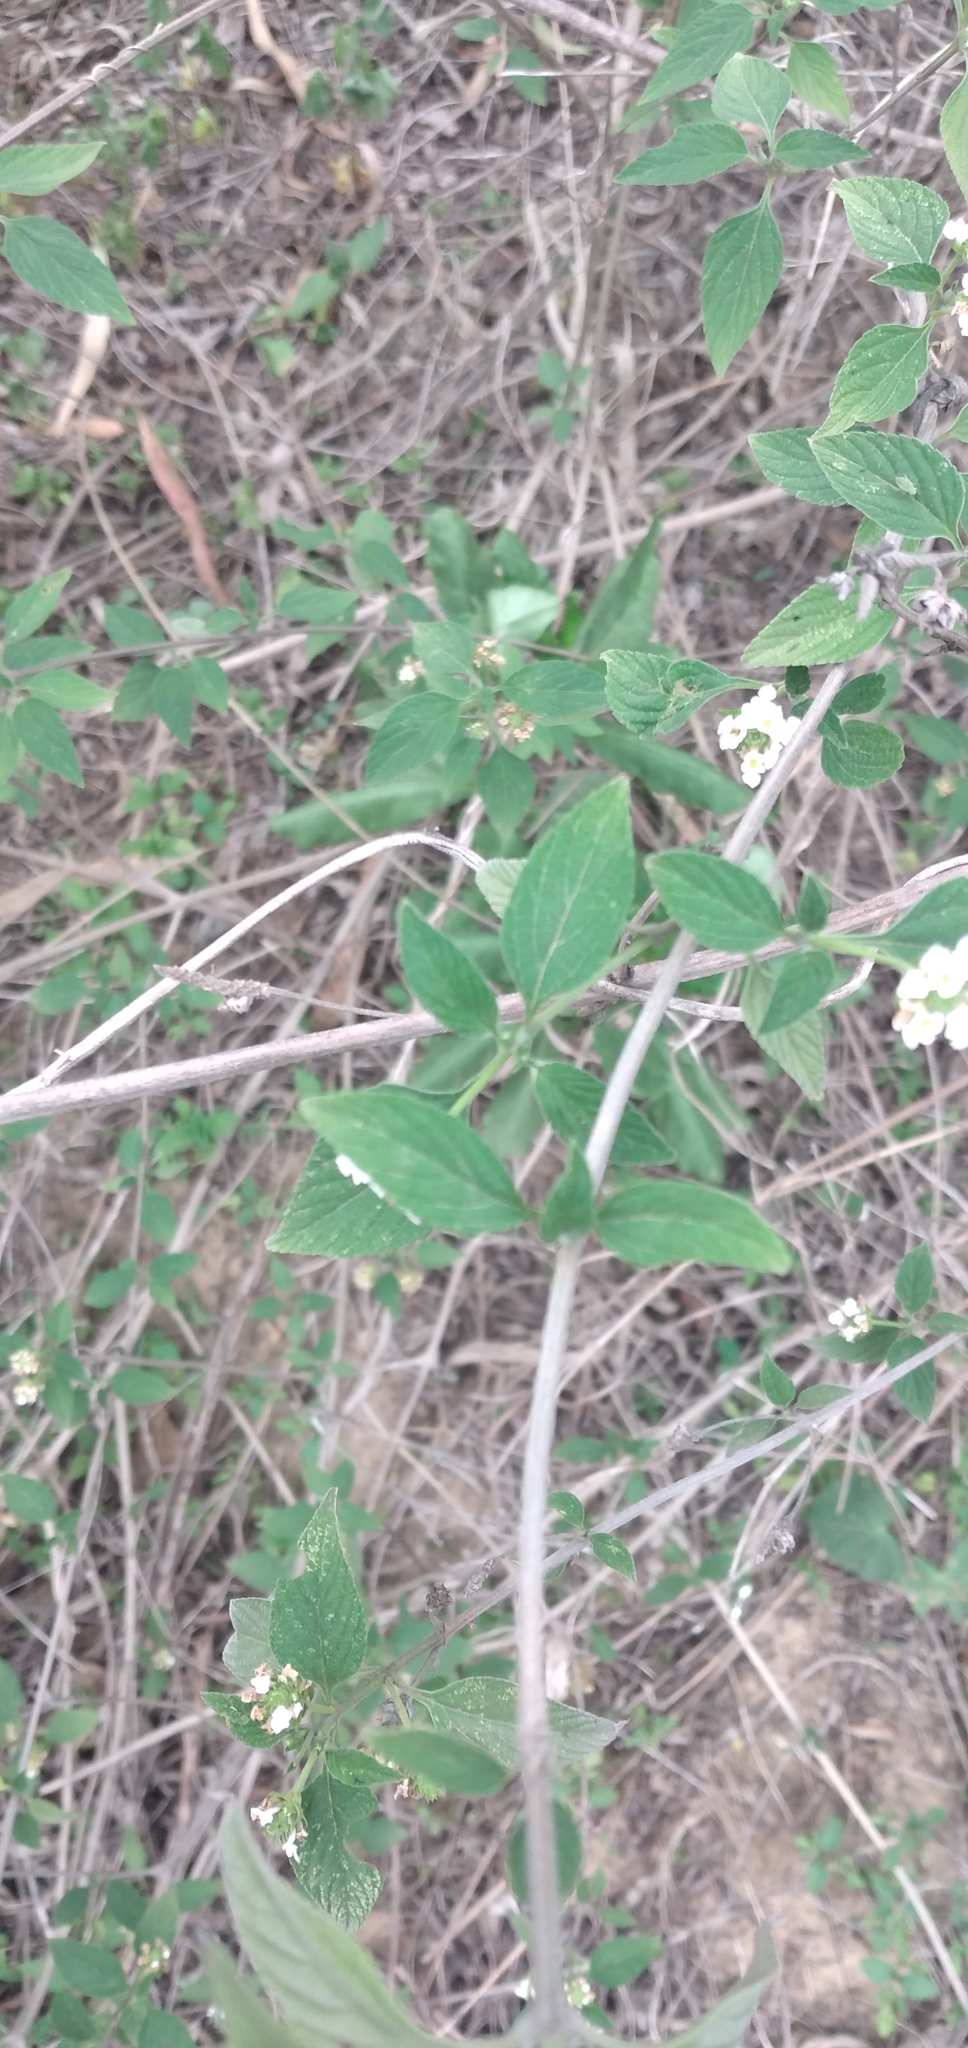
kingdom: Plantae
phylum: Tracheophyta
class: Magnoliopsida
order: Lamiales
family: Verbenaceae
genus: Lantana
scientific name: Lantana achyranthifolia
